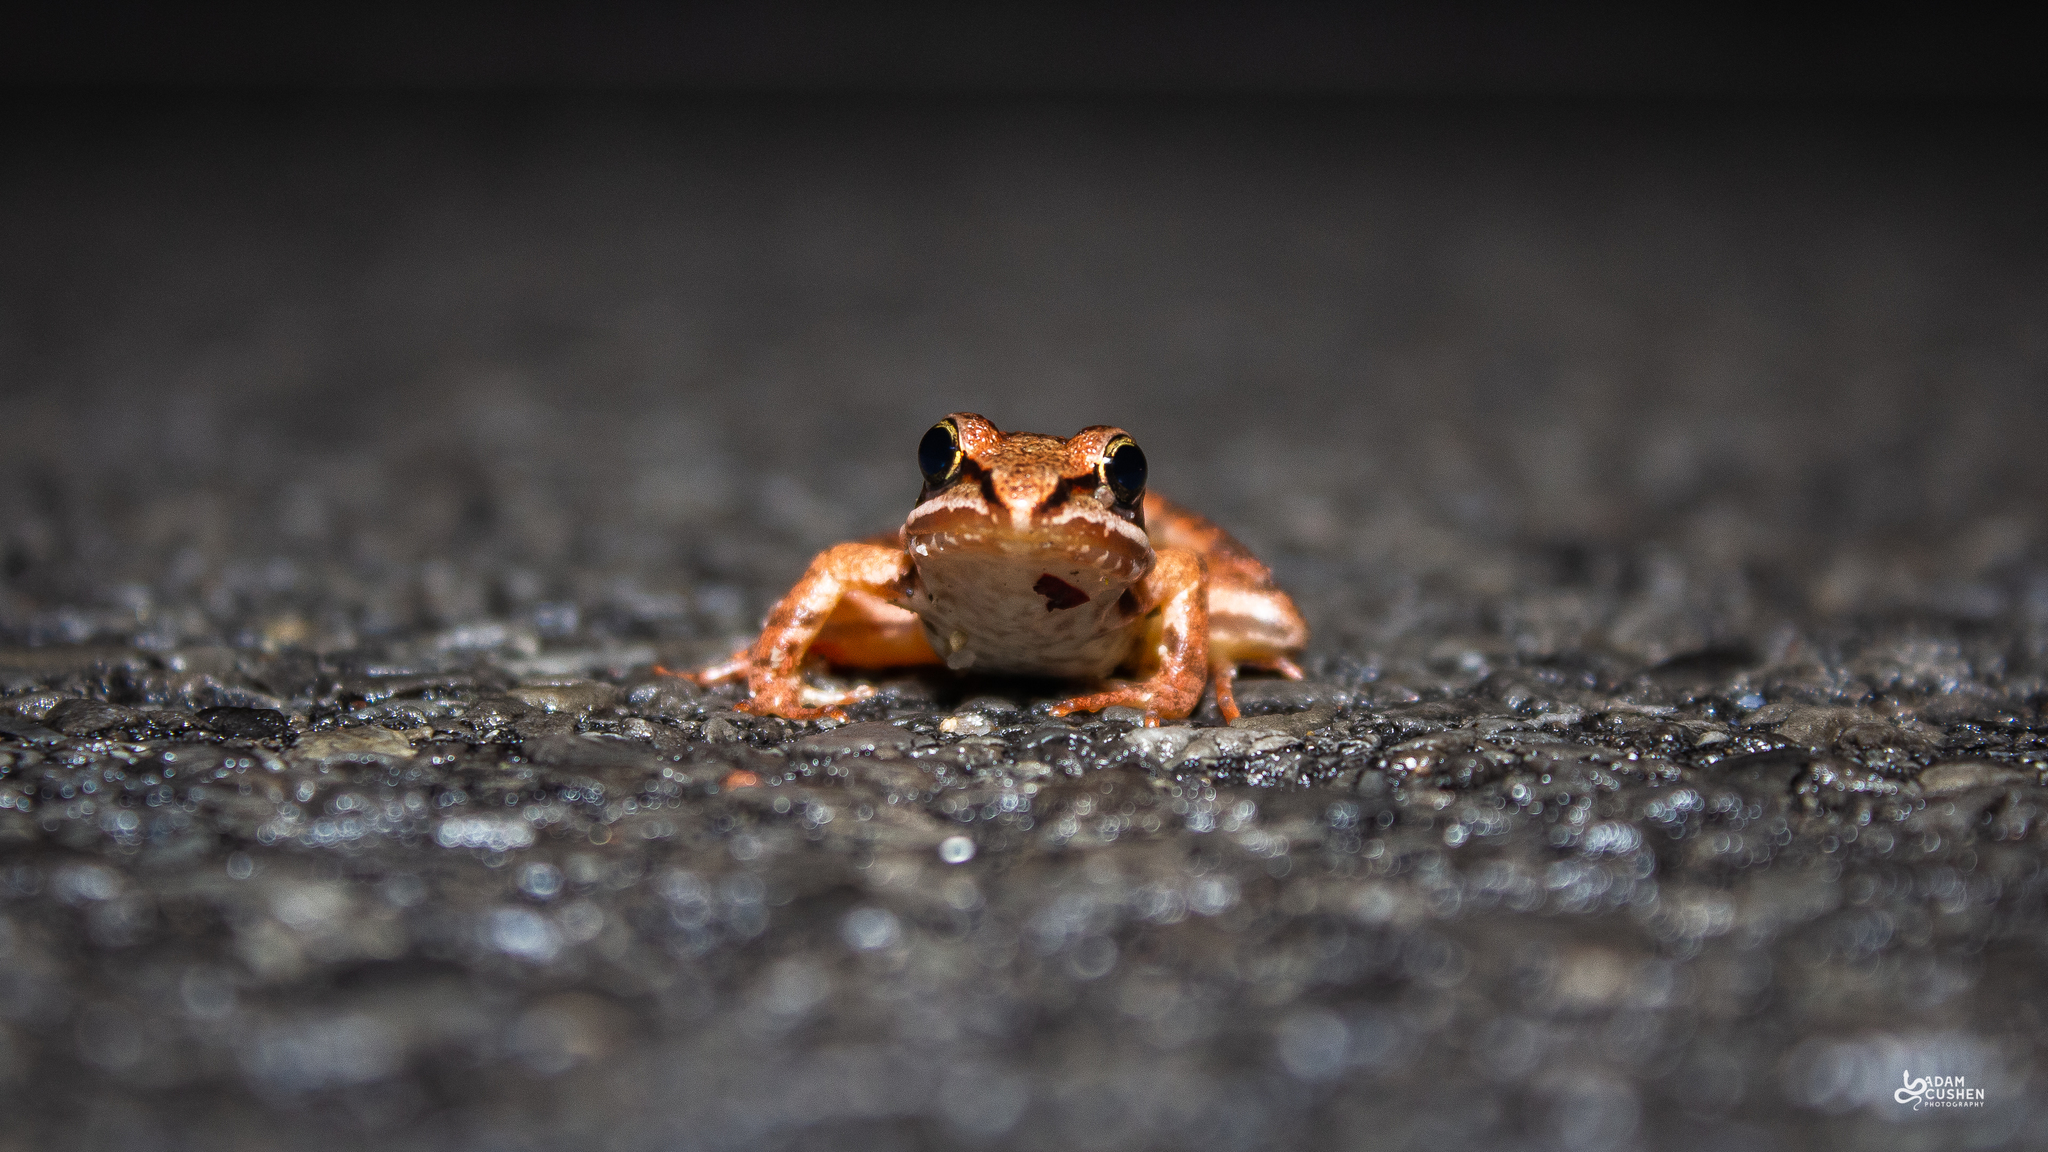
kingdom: Animalia
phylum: Chordata
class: Amphibia
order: Anura
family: Ranidae
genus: Lithobates
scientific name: Lithobates sylvaticus
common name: Wood frog
